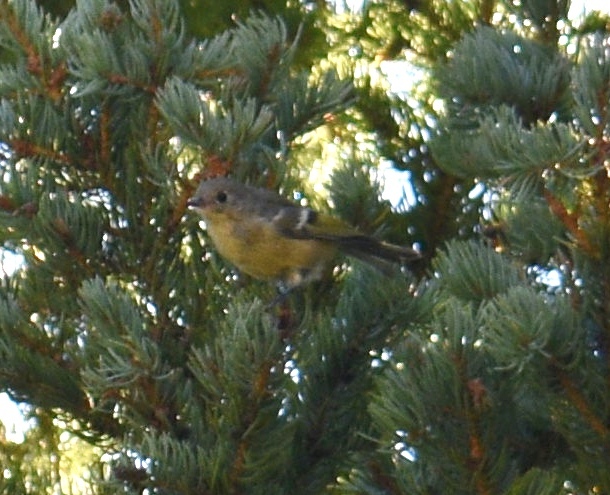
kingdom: Animalia
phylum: Chordata
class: Aves
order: Passeriformes
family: Regulidae
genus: Regulus
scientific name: Regulus calendula
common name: Ruby-crowned kinglet
